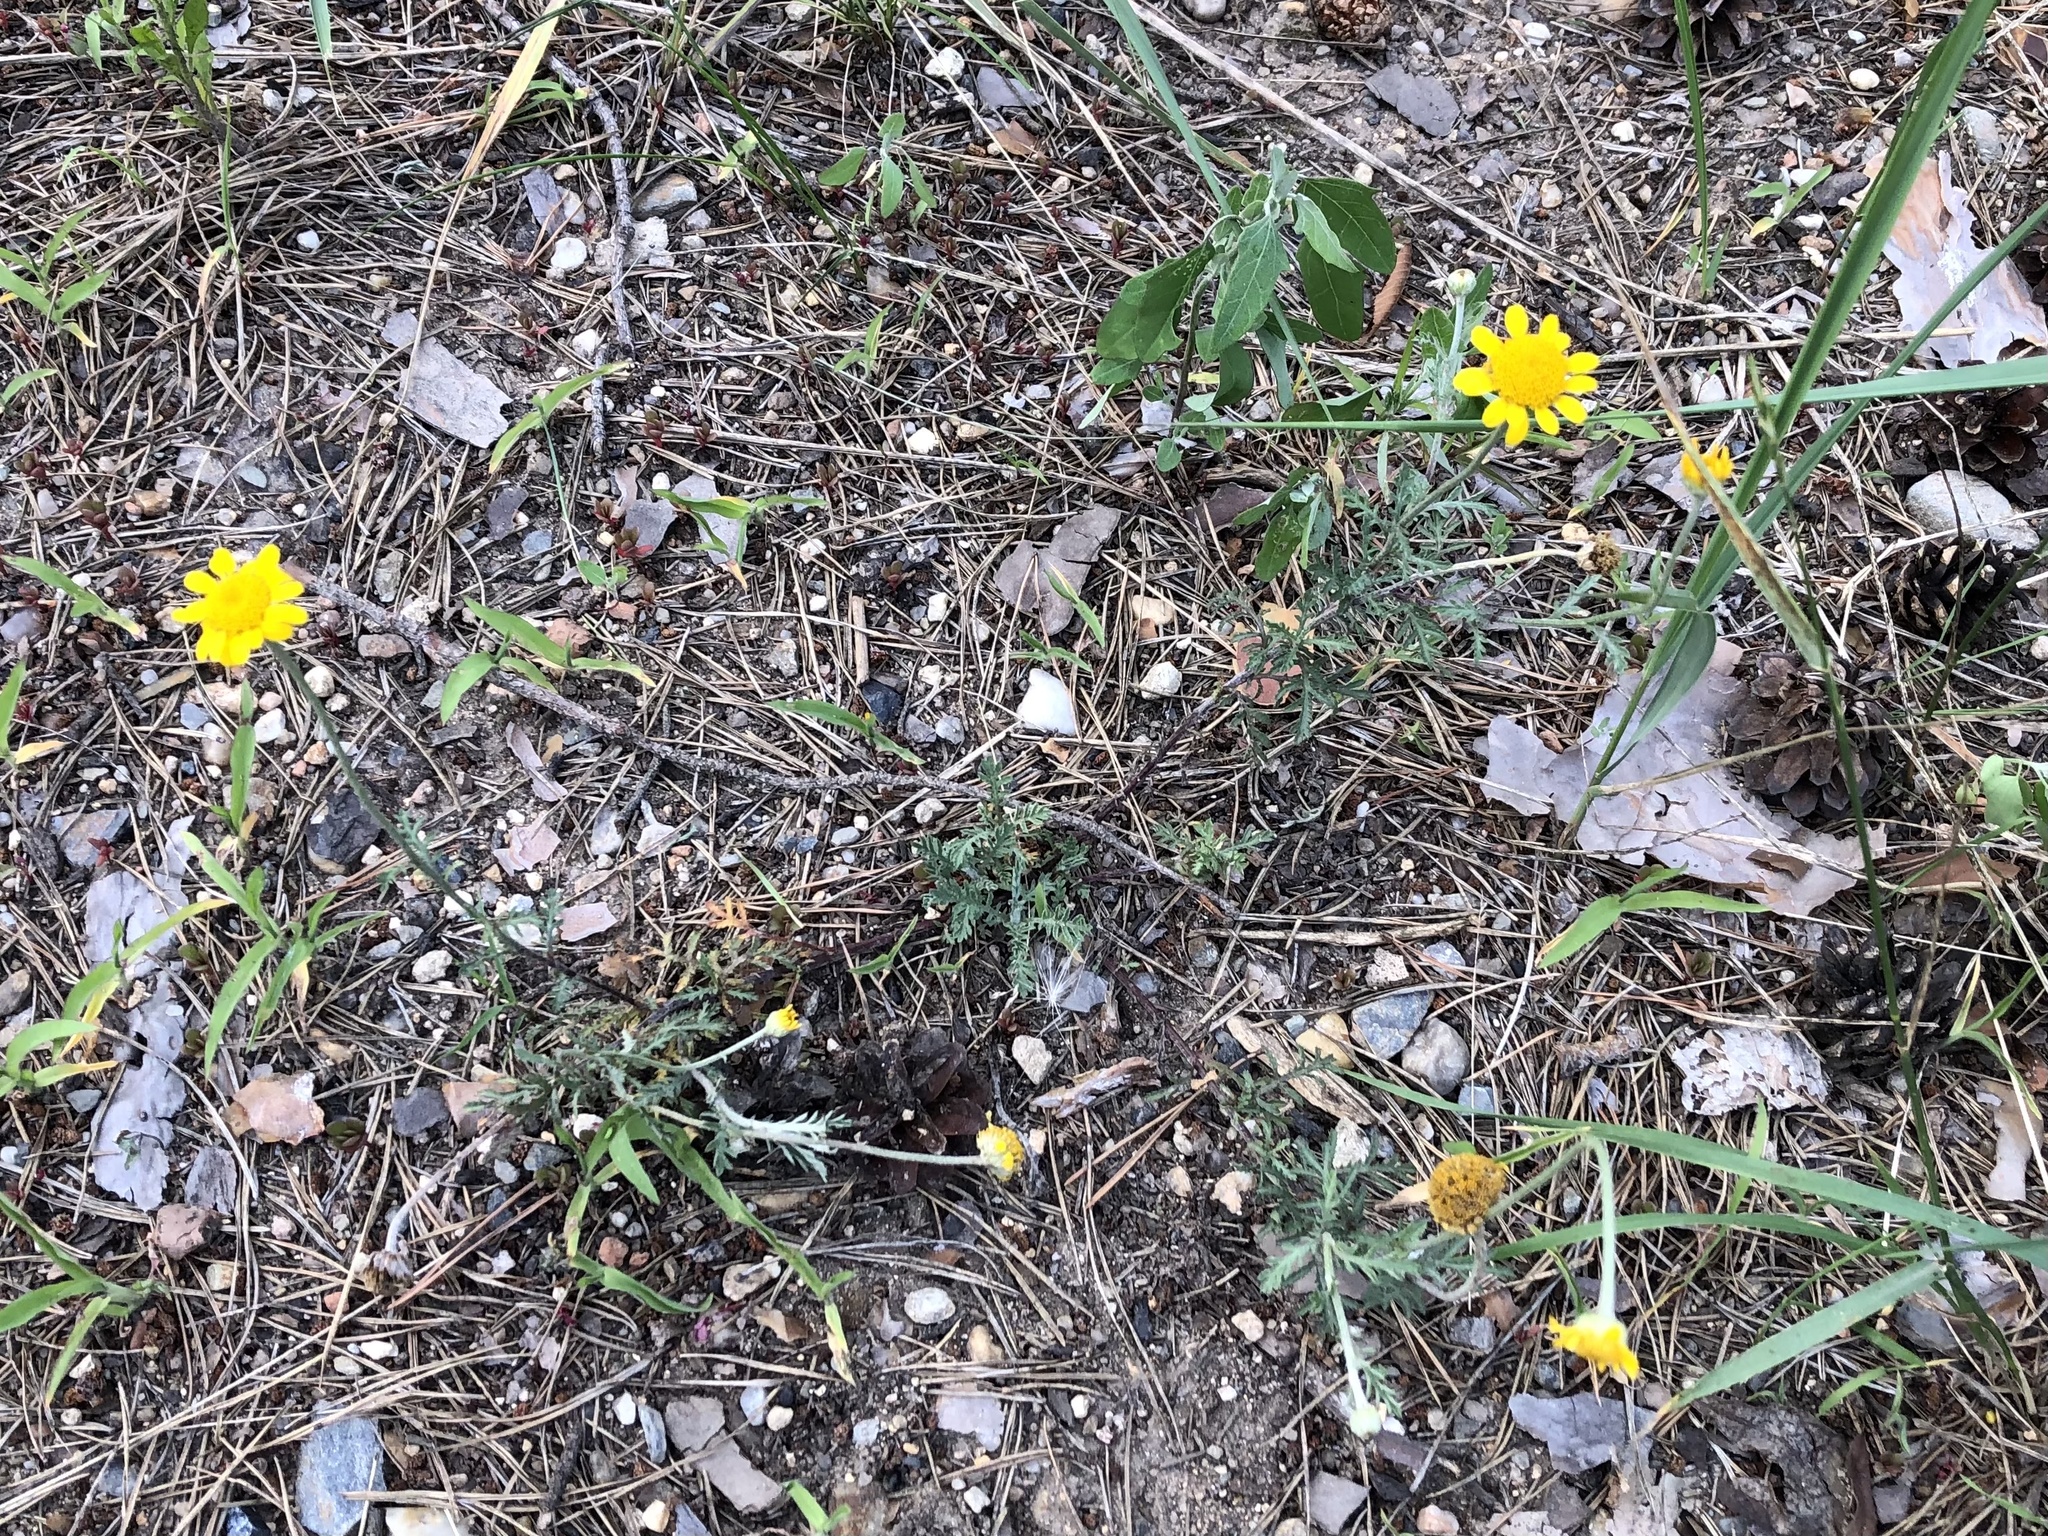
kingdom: Plantae
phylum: Tracheophyta
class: Magnoliopsida
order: Asterales
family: Asteraceae
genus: Cota
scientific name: Cota tinctoria
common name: Golden chamomile
